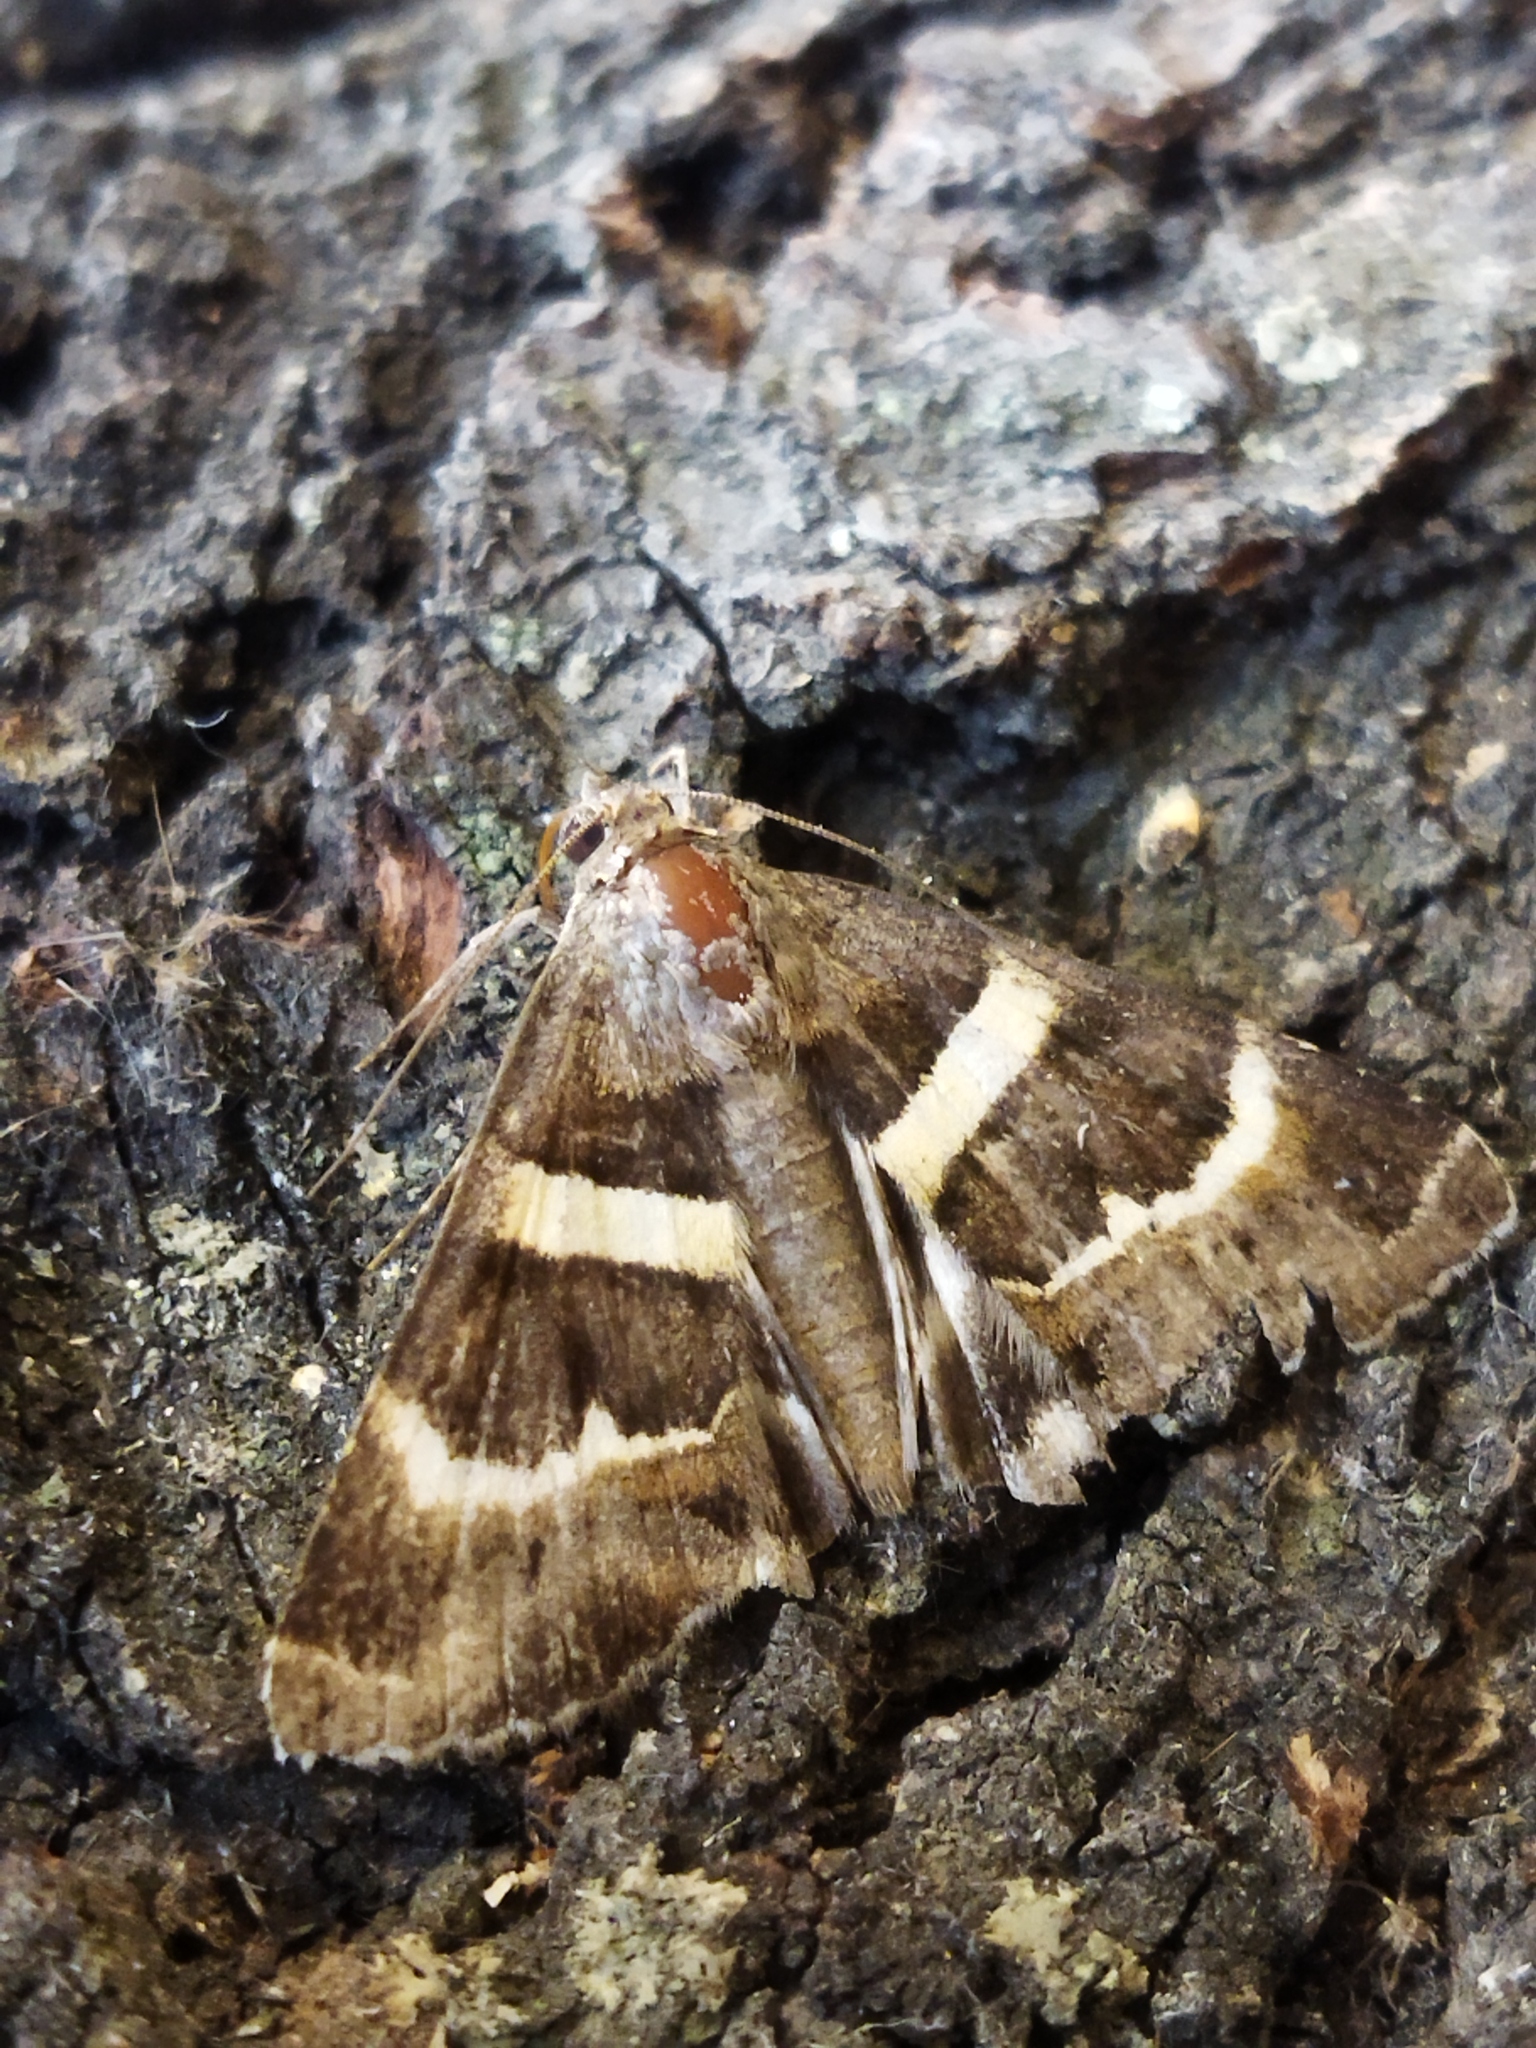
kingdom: Animalia
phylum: Arthropoda
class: Insecta
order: Lepidoptera
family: Erebidae
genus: Grammodes
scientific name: Grammodes stolida
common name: Geometrician
